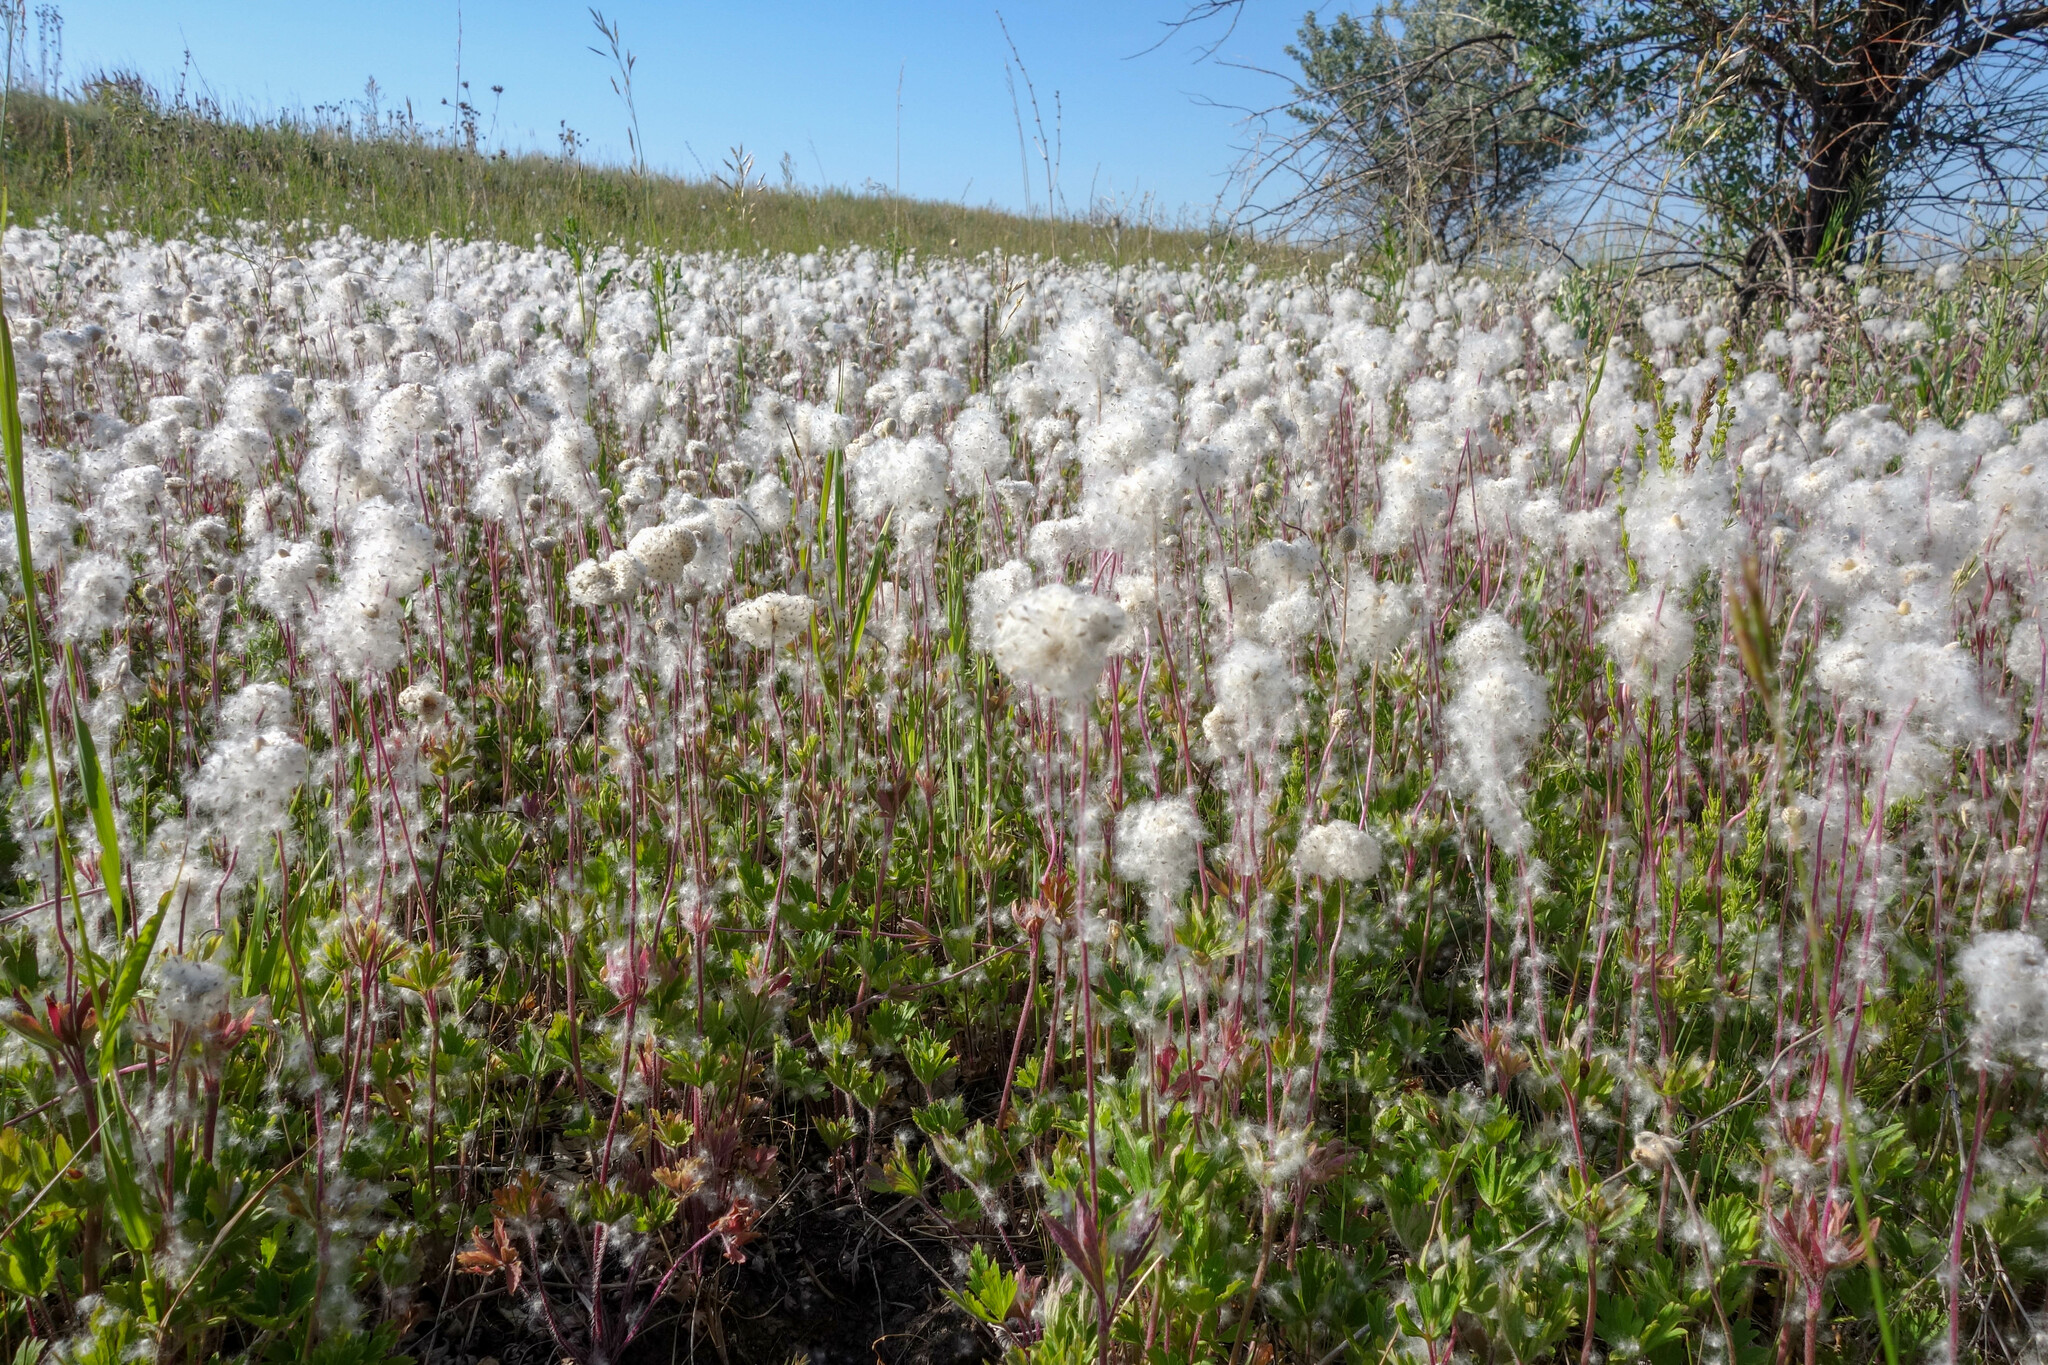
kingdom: Plantae
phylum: Tracheophyta
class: Magnoliopsida
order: Ranunculales
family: Ranunculaceae
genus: Anemone
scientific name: Anemone sylvestris
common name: Snowdrop anemone
